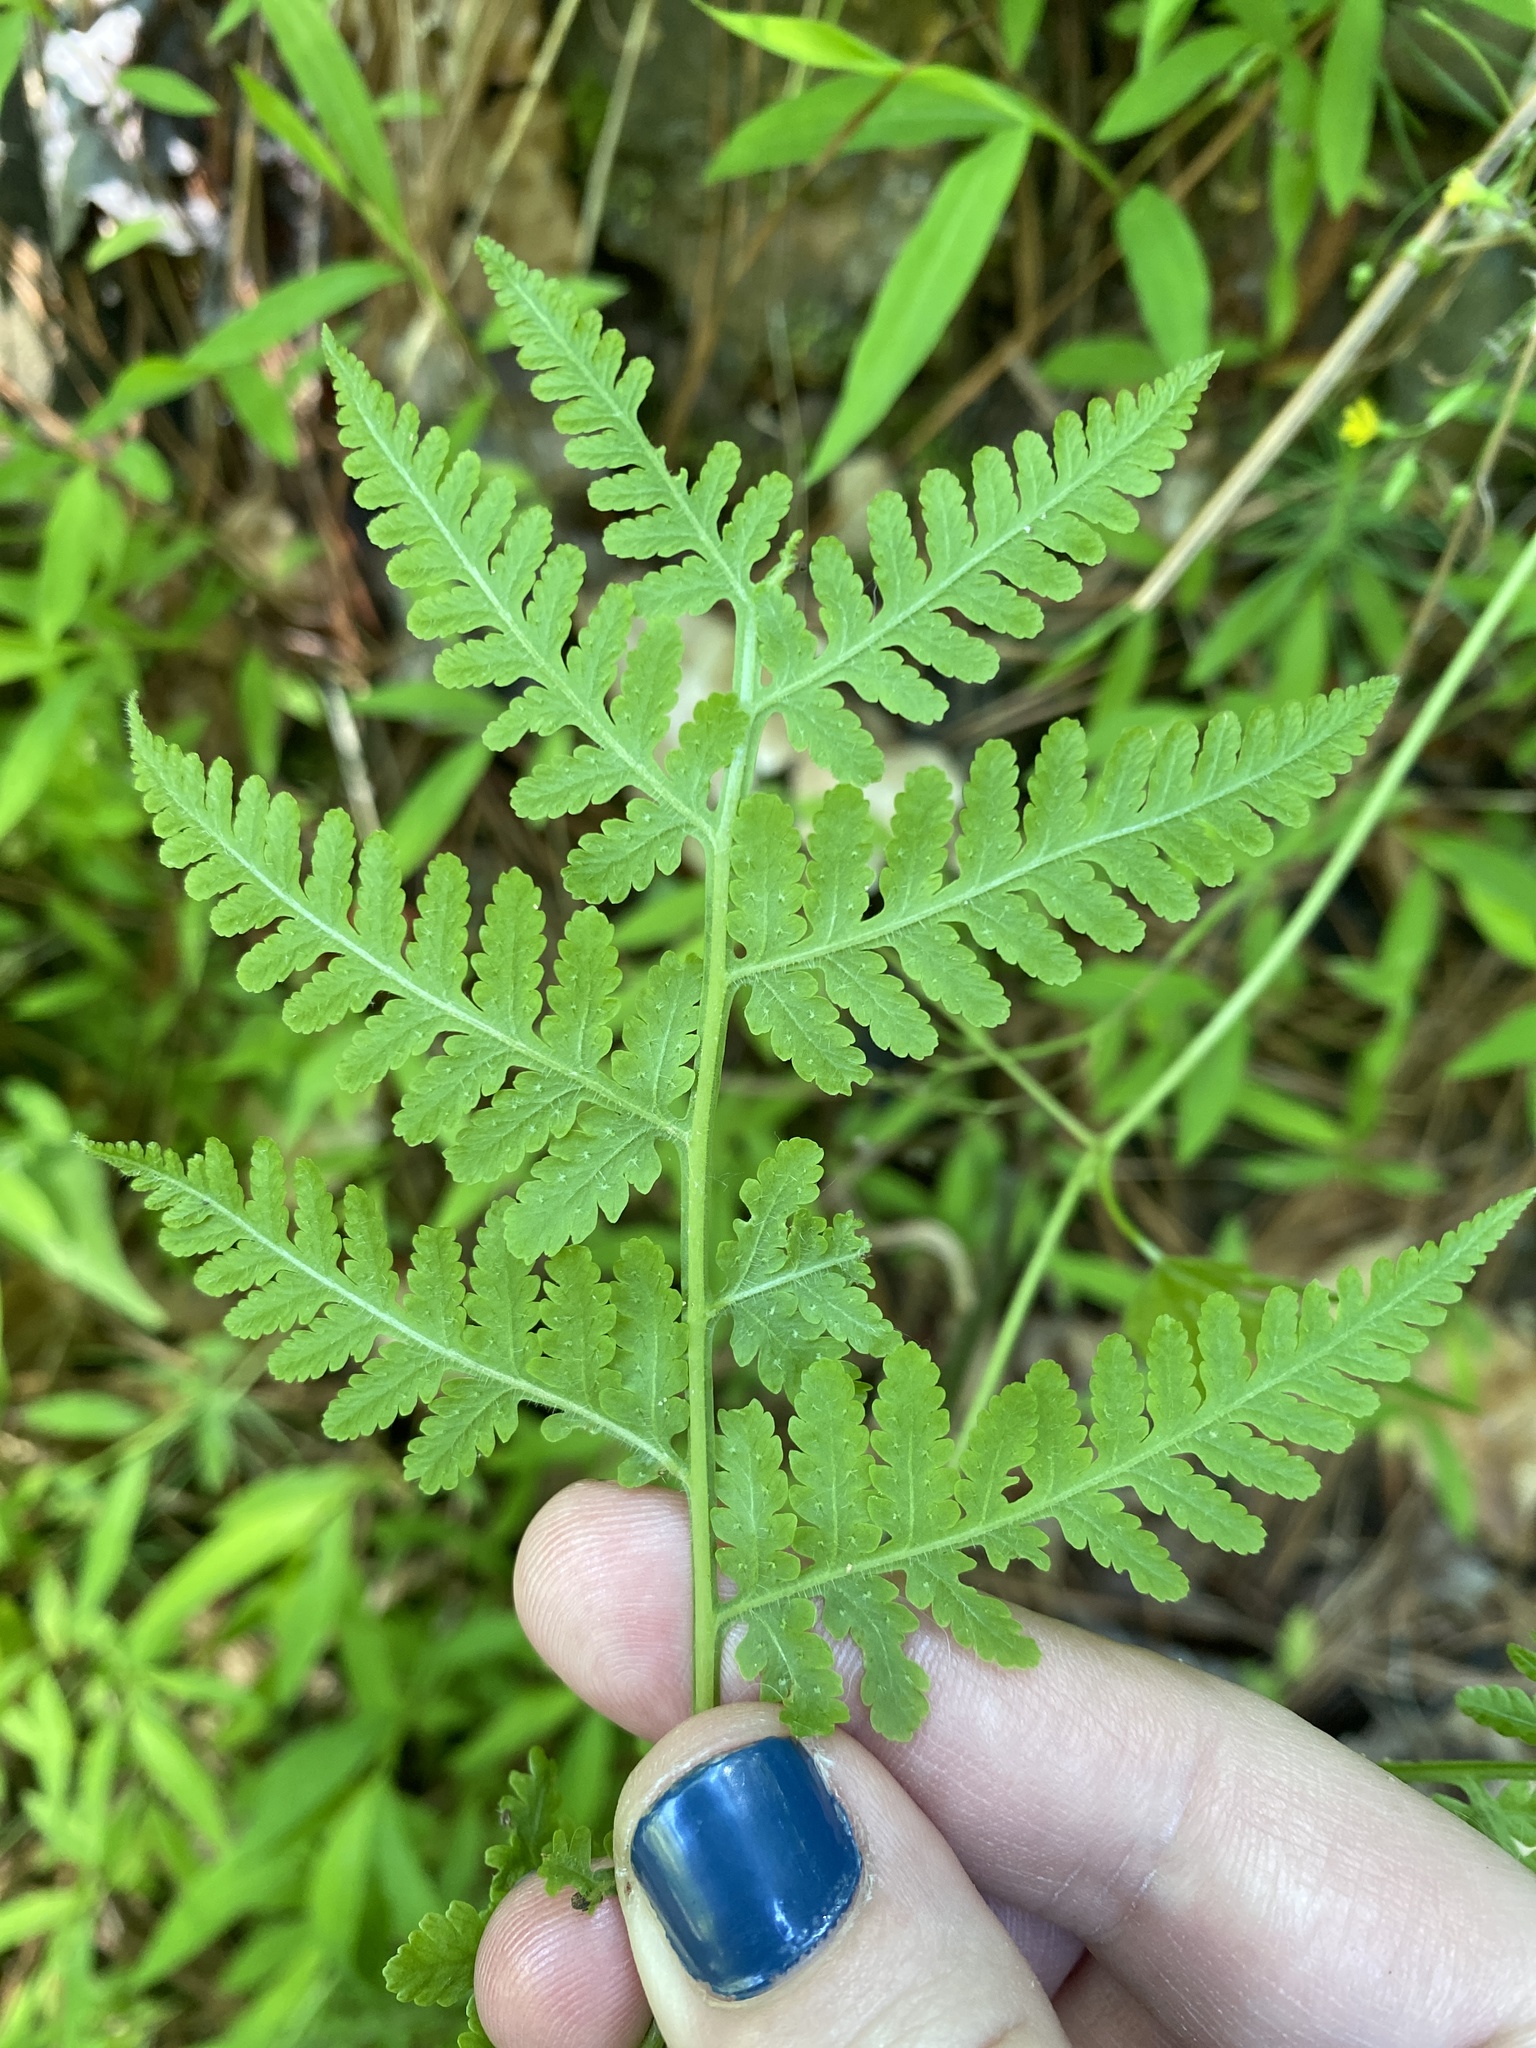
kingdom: Plantae
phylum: Tracheophyta
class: Polypodiopsida
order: Polypodiales
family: Thelypteridaceae
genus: Macrothelypteris
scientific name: Macrothelypteris torresiana
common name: Swordfern
